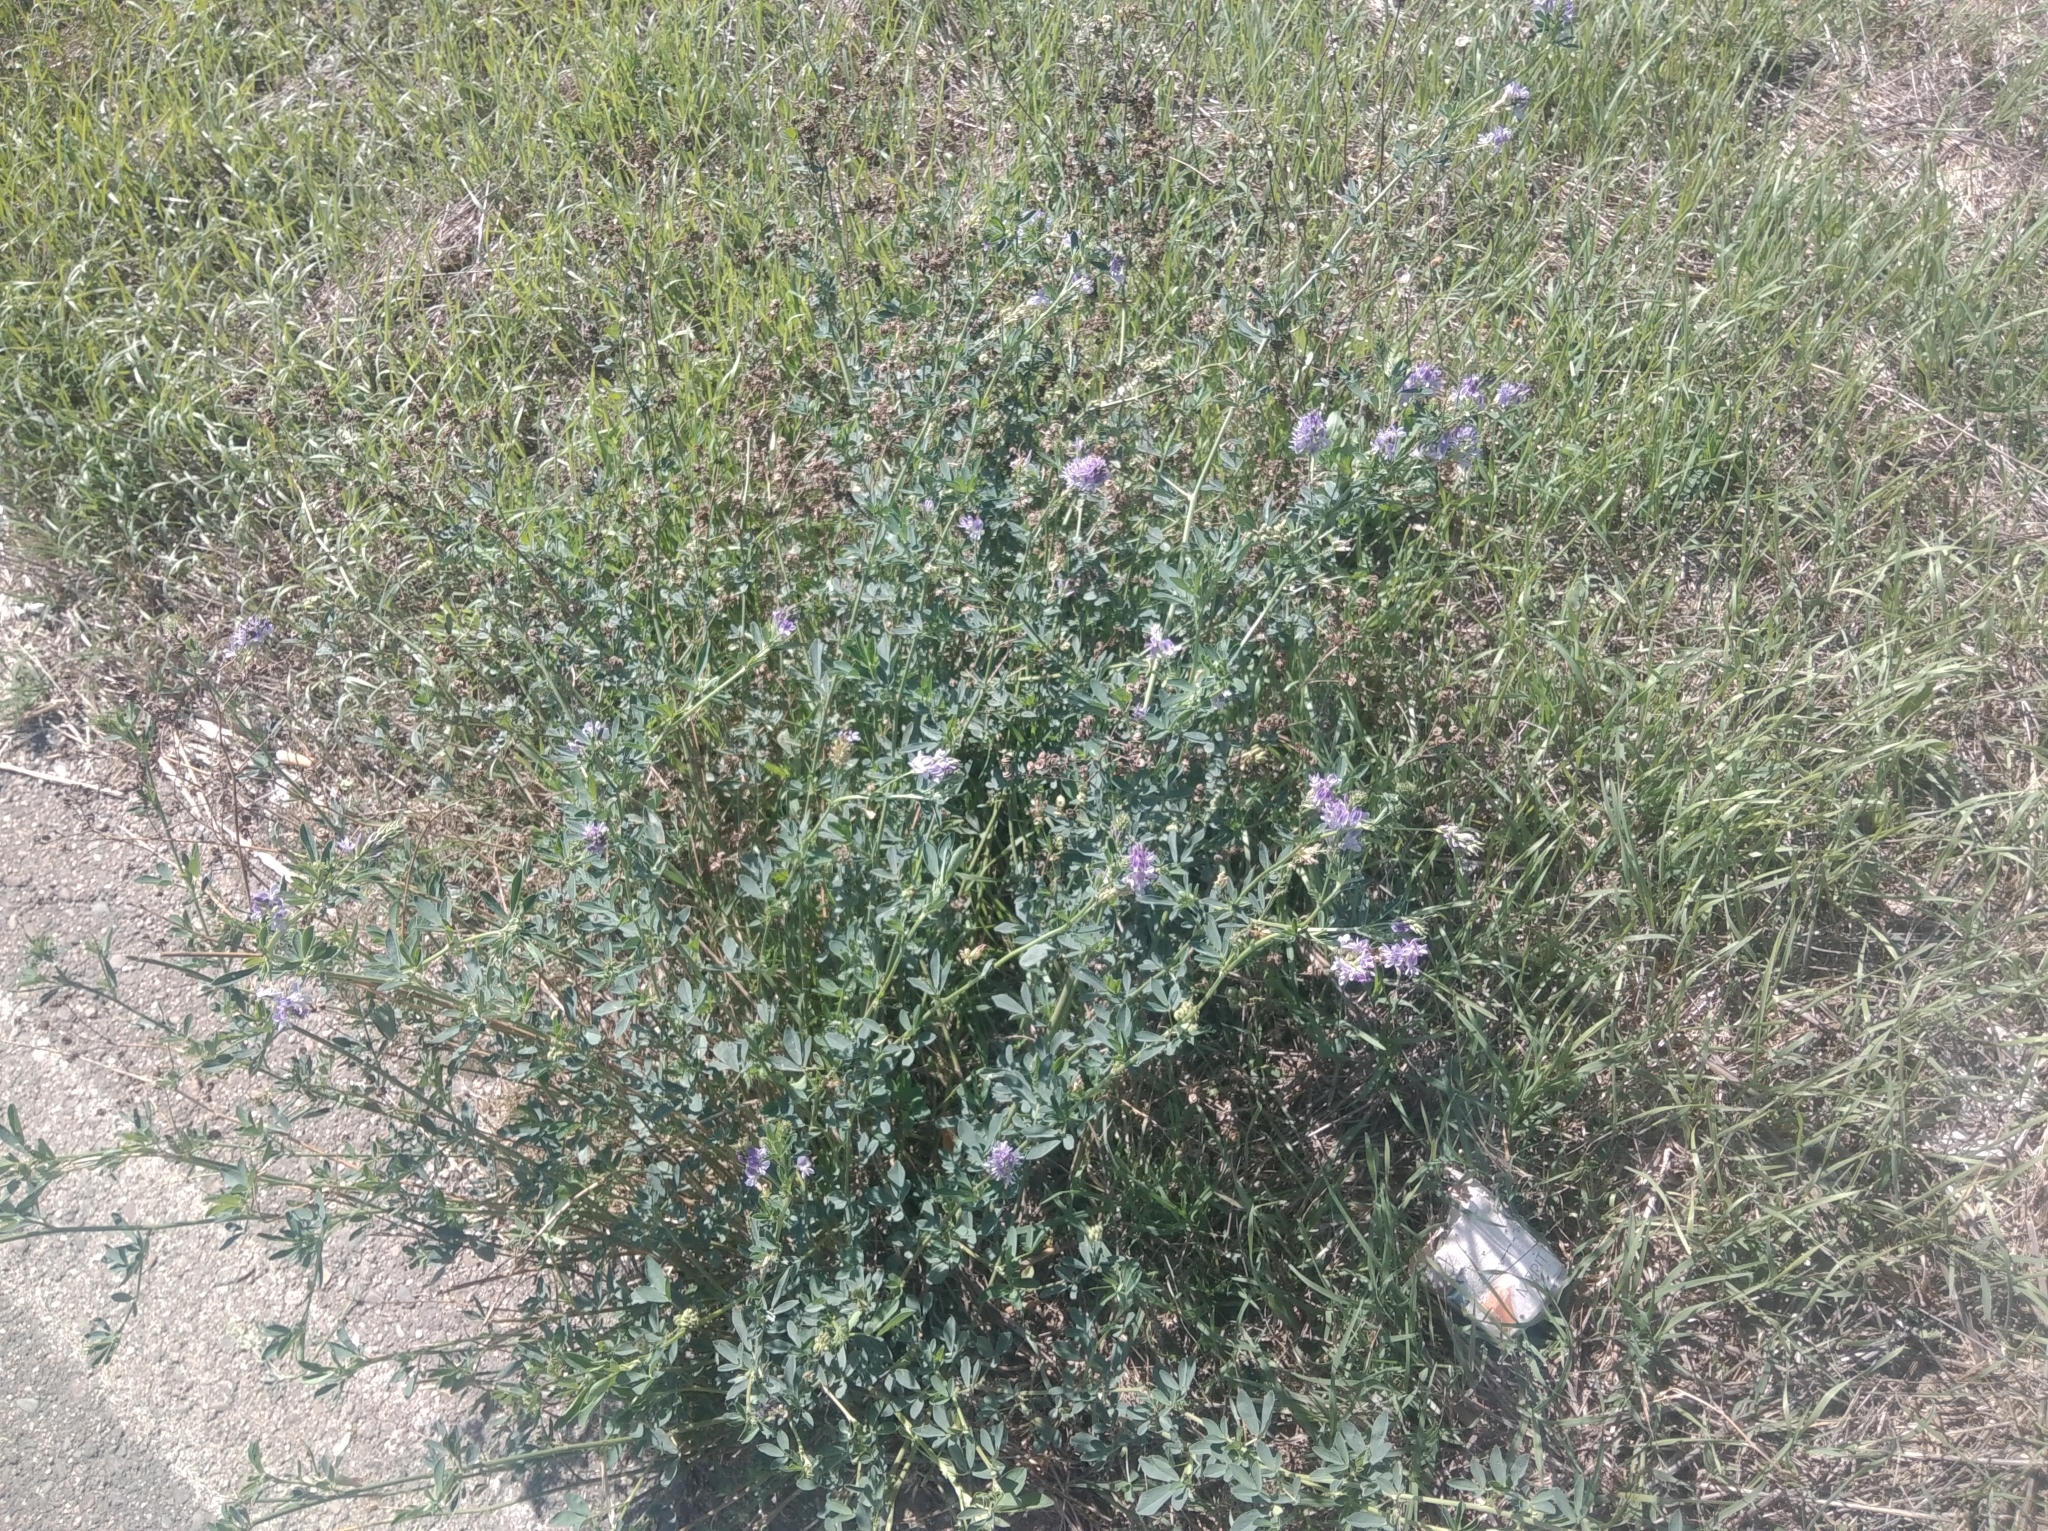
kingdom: Plantae
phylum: Tracheophyta
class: Magnoliopsida
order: Fabales
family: Fabaceae
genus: Medicago
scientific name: Medicago sativa
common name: Alfalfa
